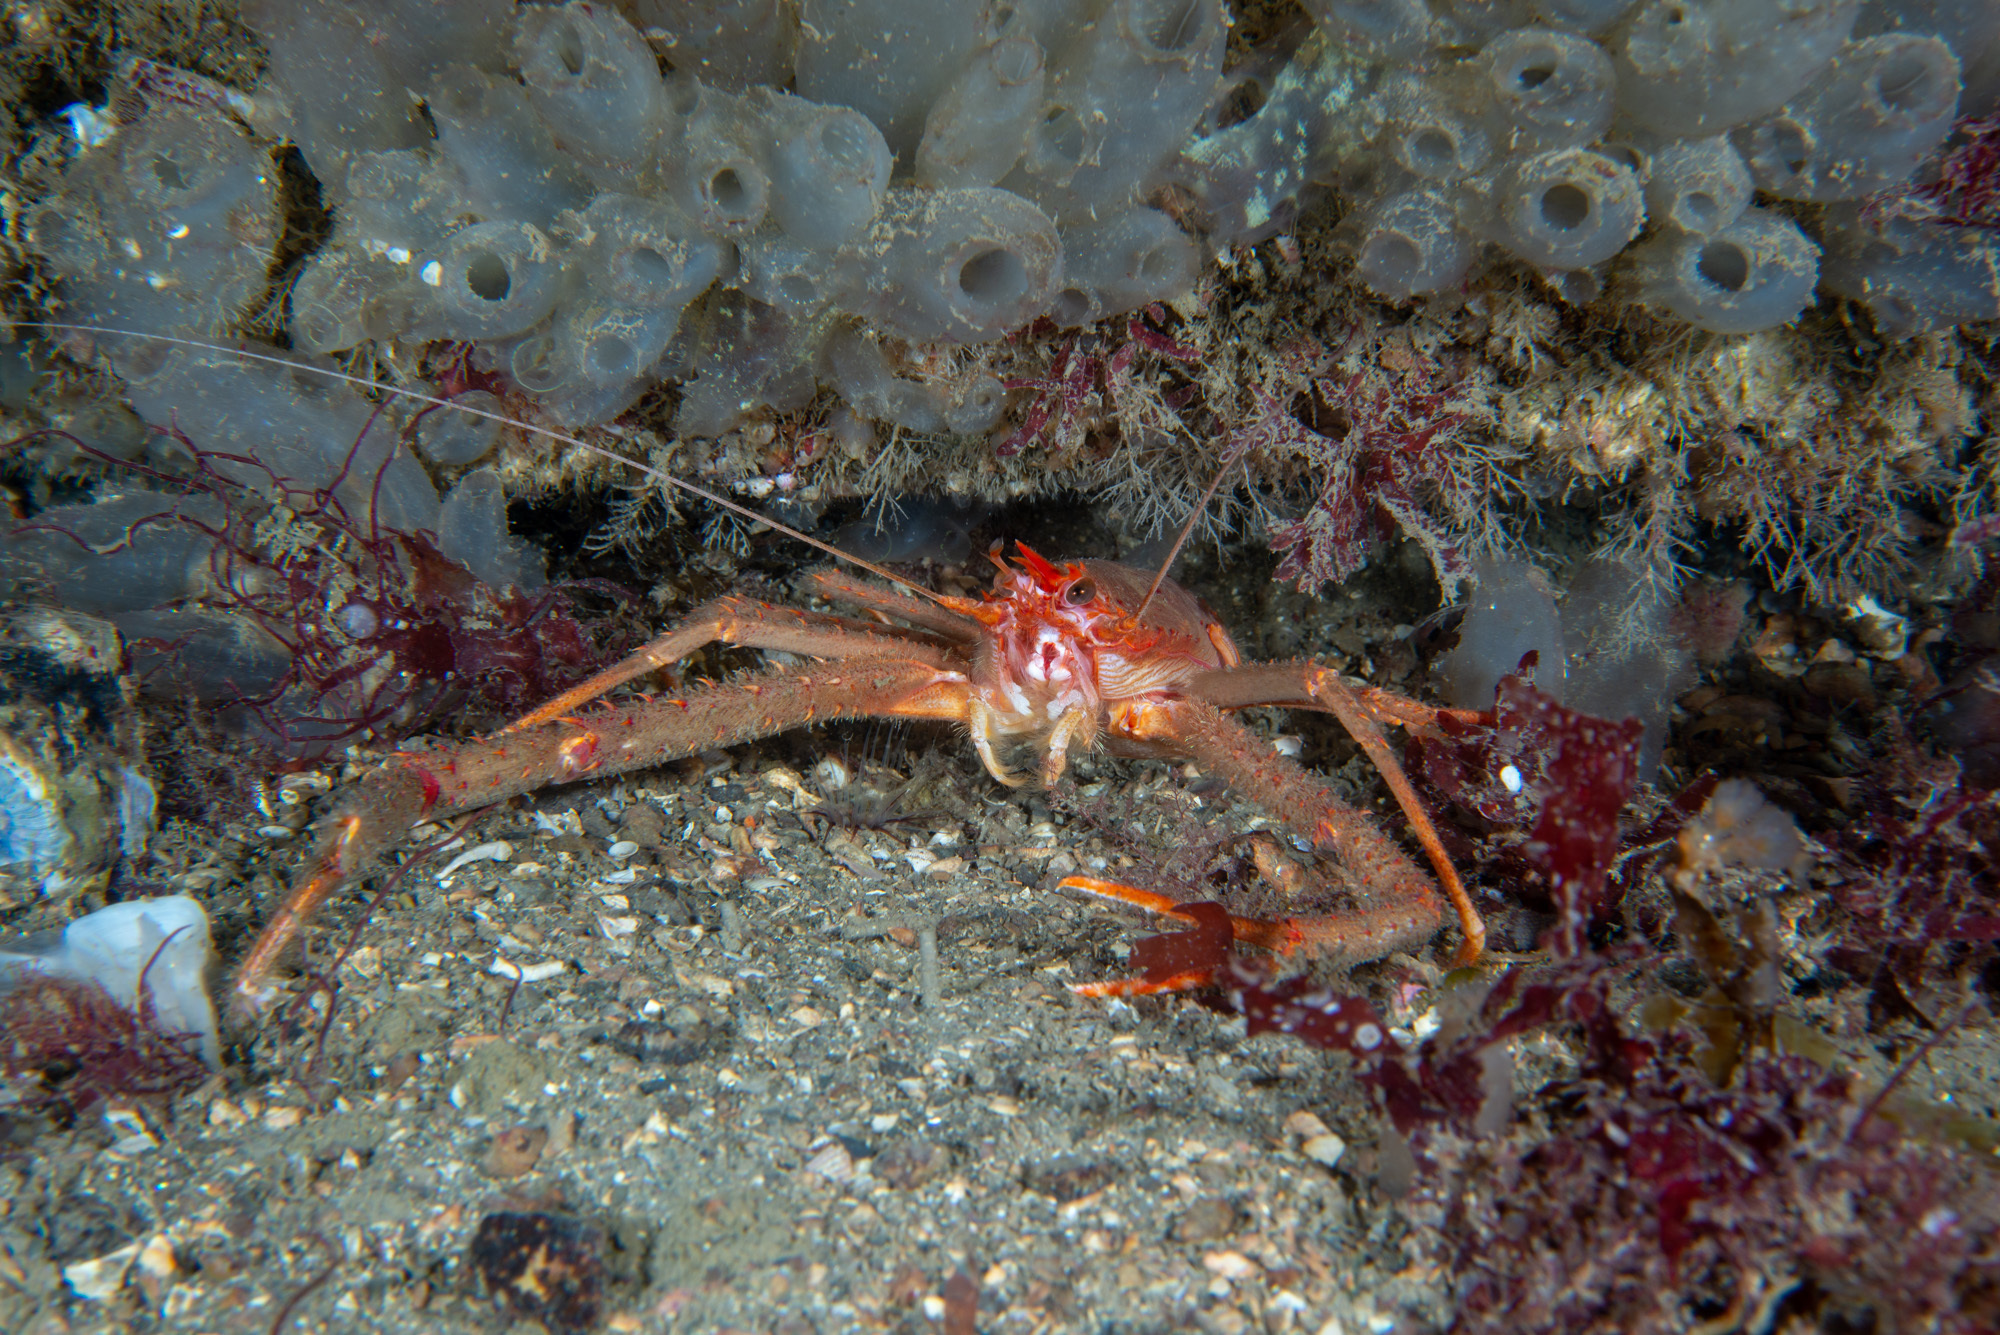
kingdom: Animalia
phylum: Arthropoda
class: Malacostraca
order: Decapoda
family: Munididae
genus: Munida
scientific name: Munida rugosa
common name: Rugose squat lobster
